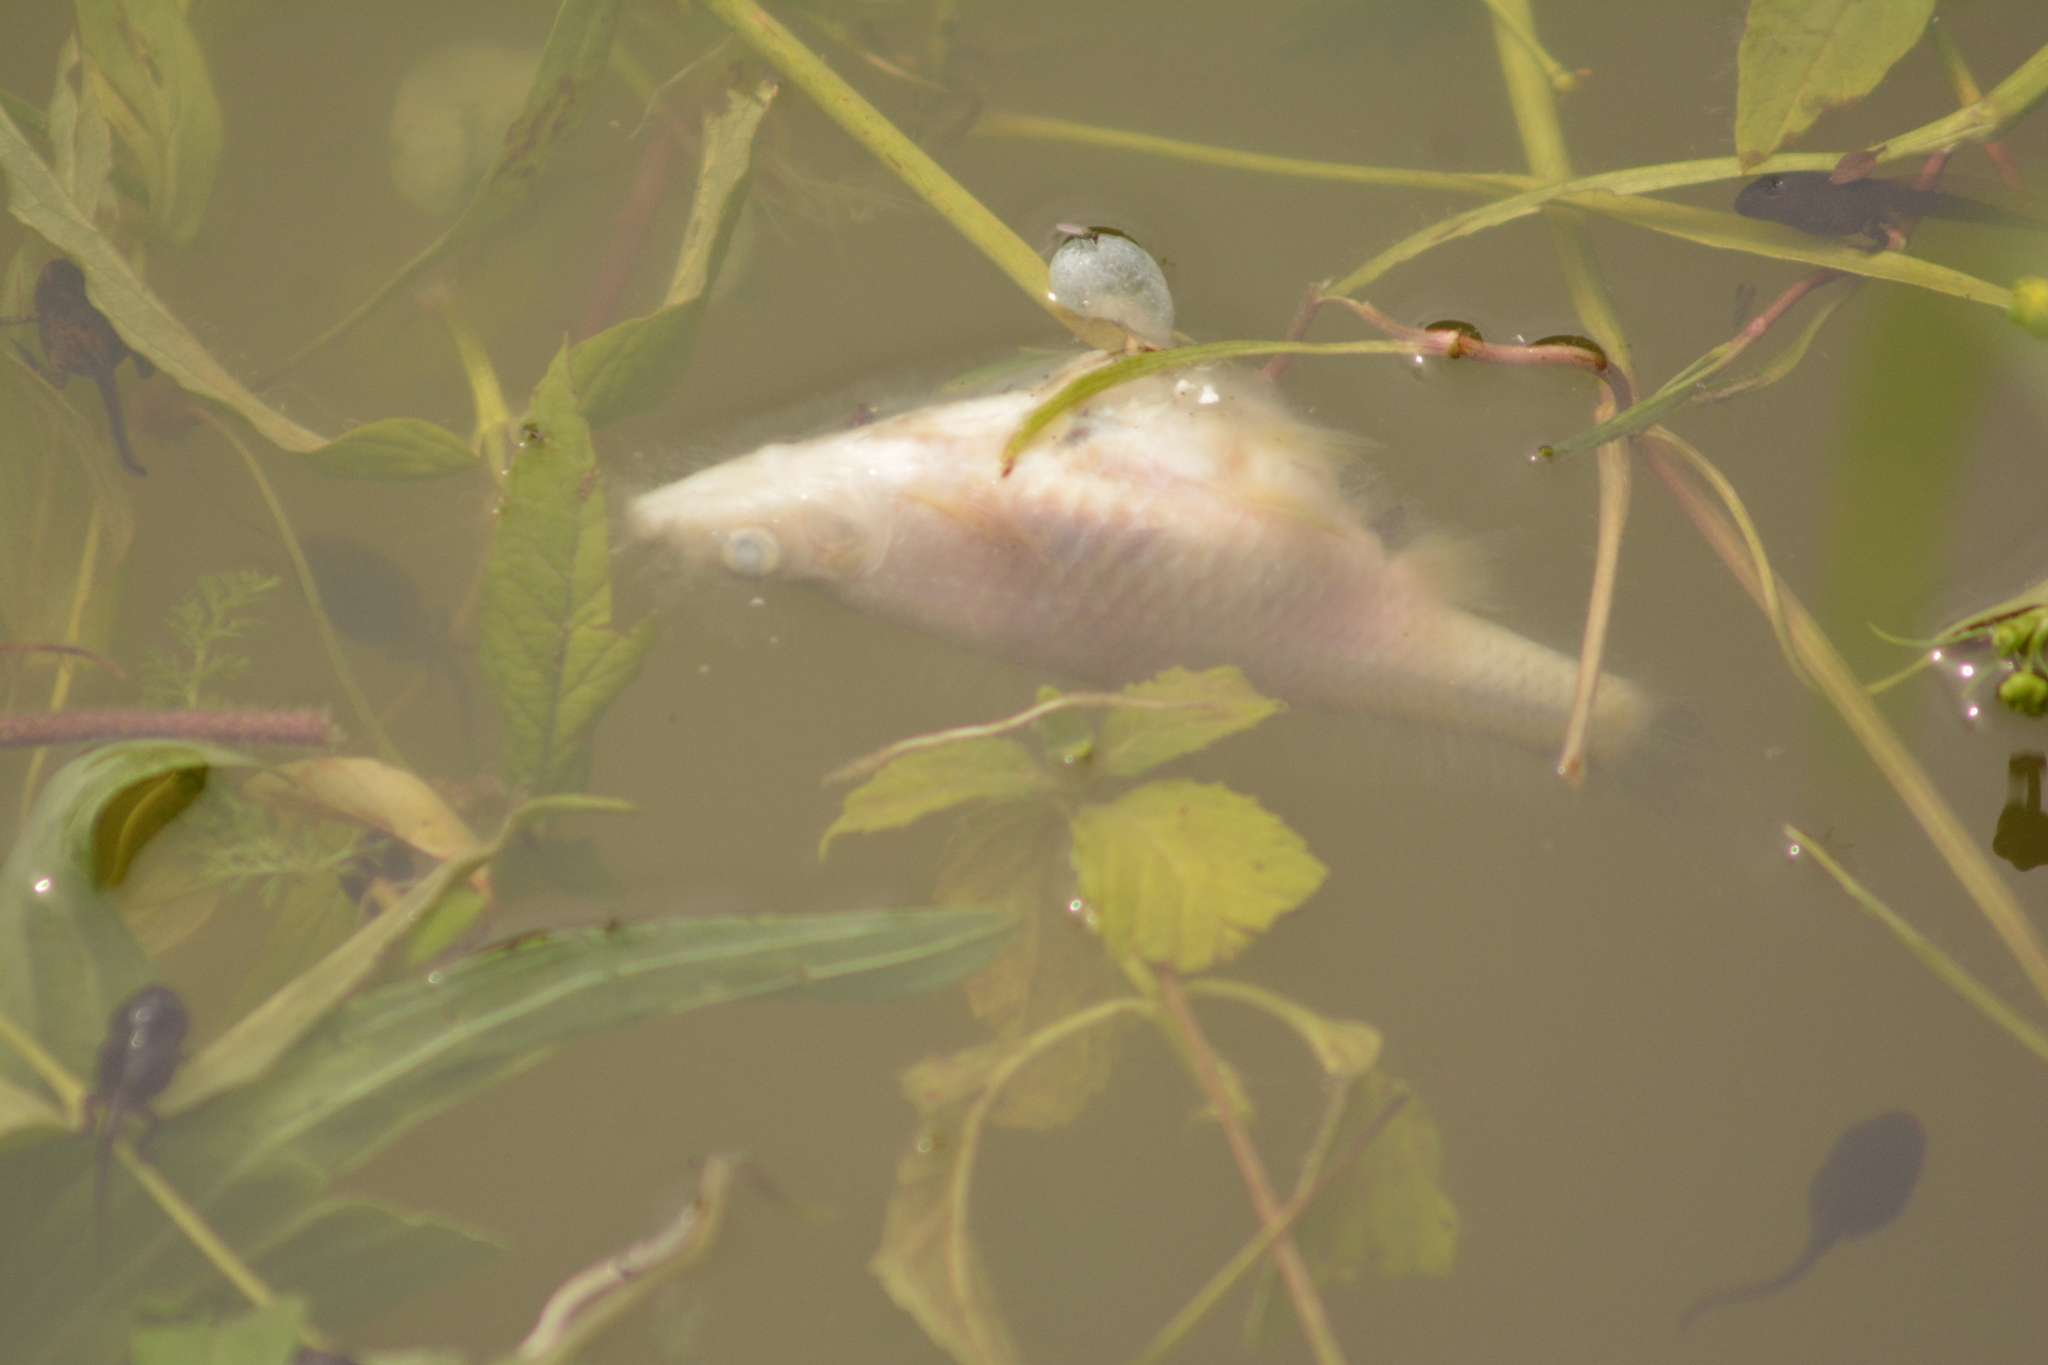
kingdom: Animalia
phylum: Chordata
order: Cypriniformes
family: Cyprinidae
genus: Pseudorasbora
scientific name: Pseudorasbora parva
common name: Topmouth gudgeon
